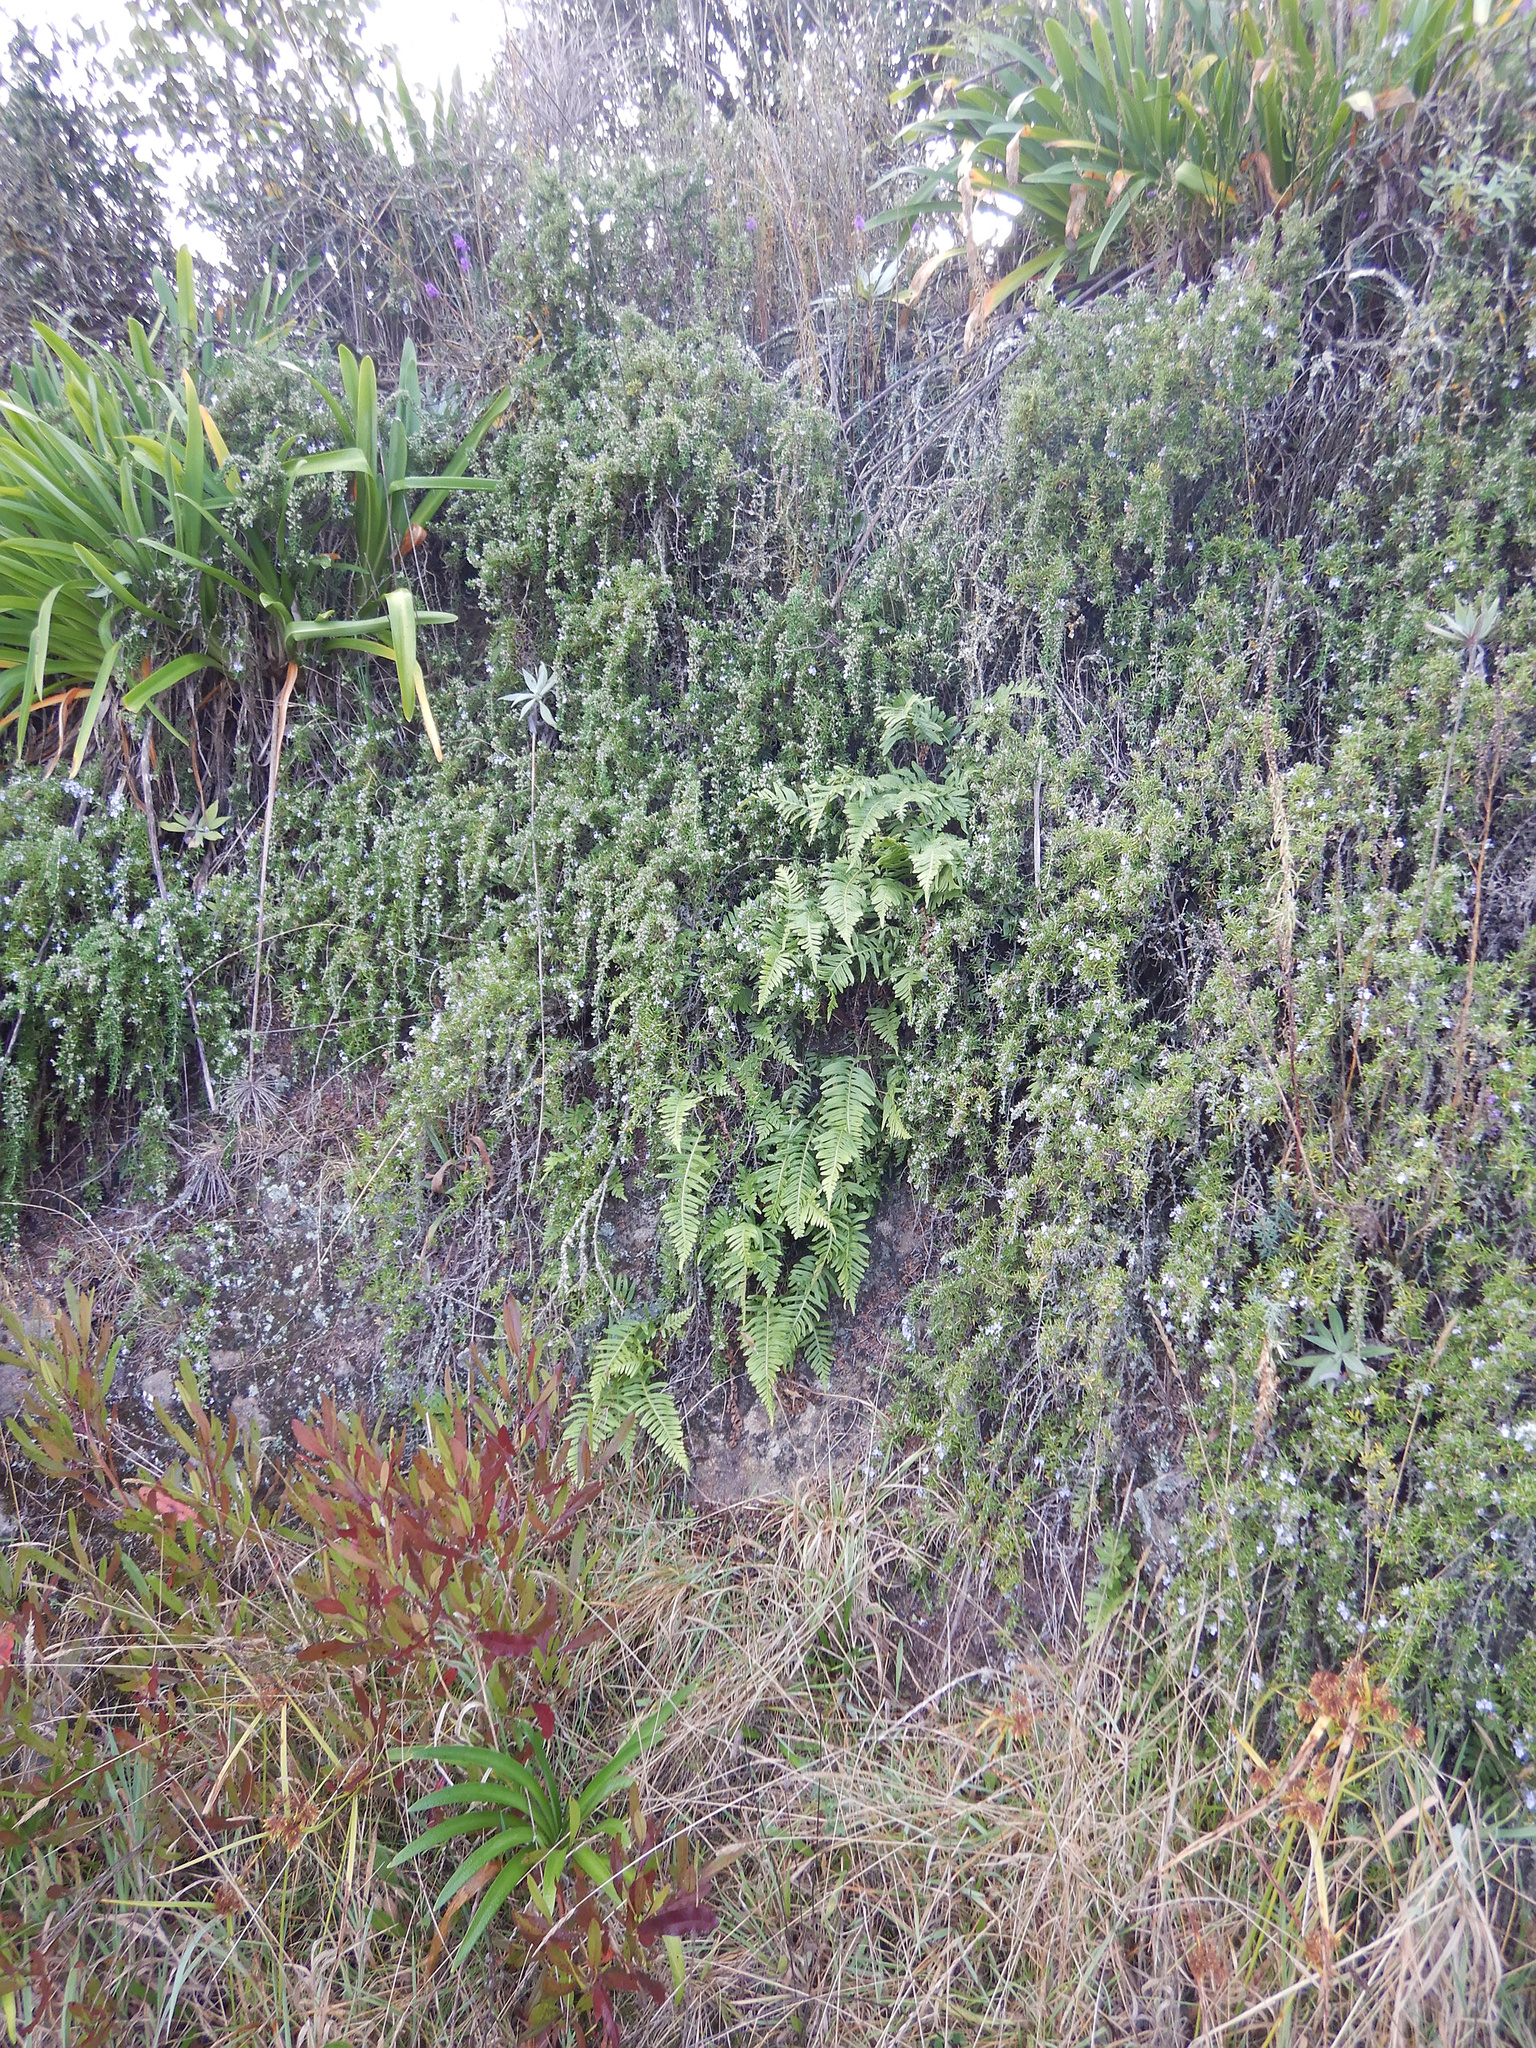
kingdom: Plantae
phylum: Tracheophyta
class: Polypodiopsida
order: Polypodiales
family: Polypodiaceae
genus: Polypodium
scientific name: Polypodium vulgare
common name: Common polypody
